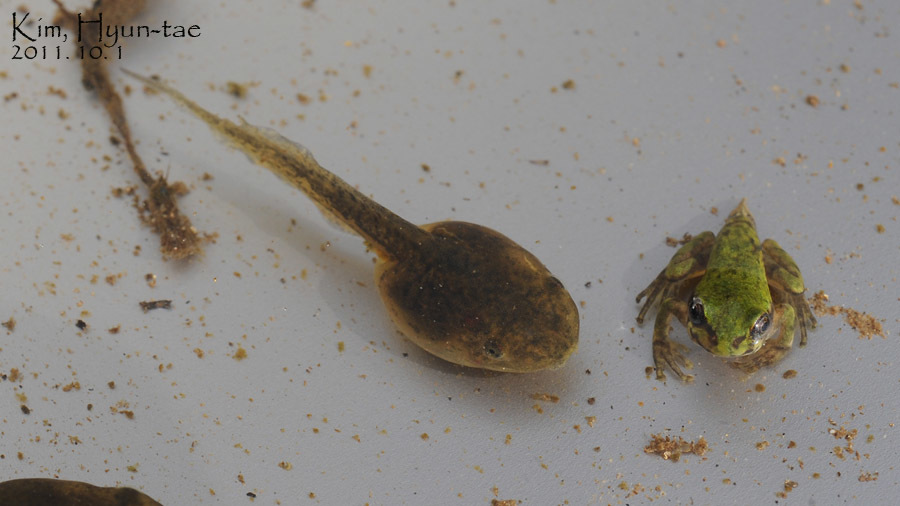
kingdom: Animalia
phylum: Chordata
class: Amphibia
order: Anura
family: Hylidae
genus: Dryophytes
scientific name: Dryophytes japonicus
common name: Japanese treefrog
